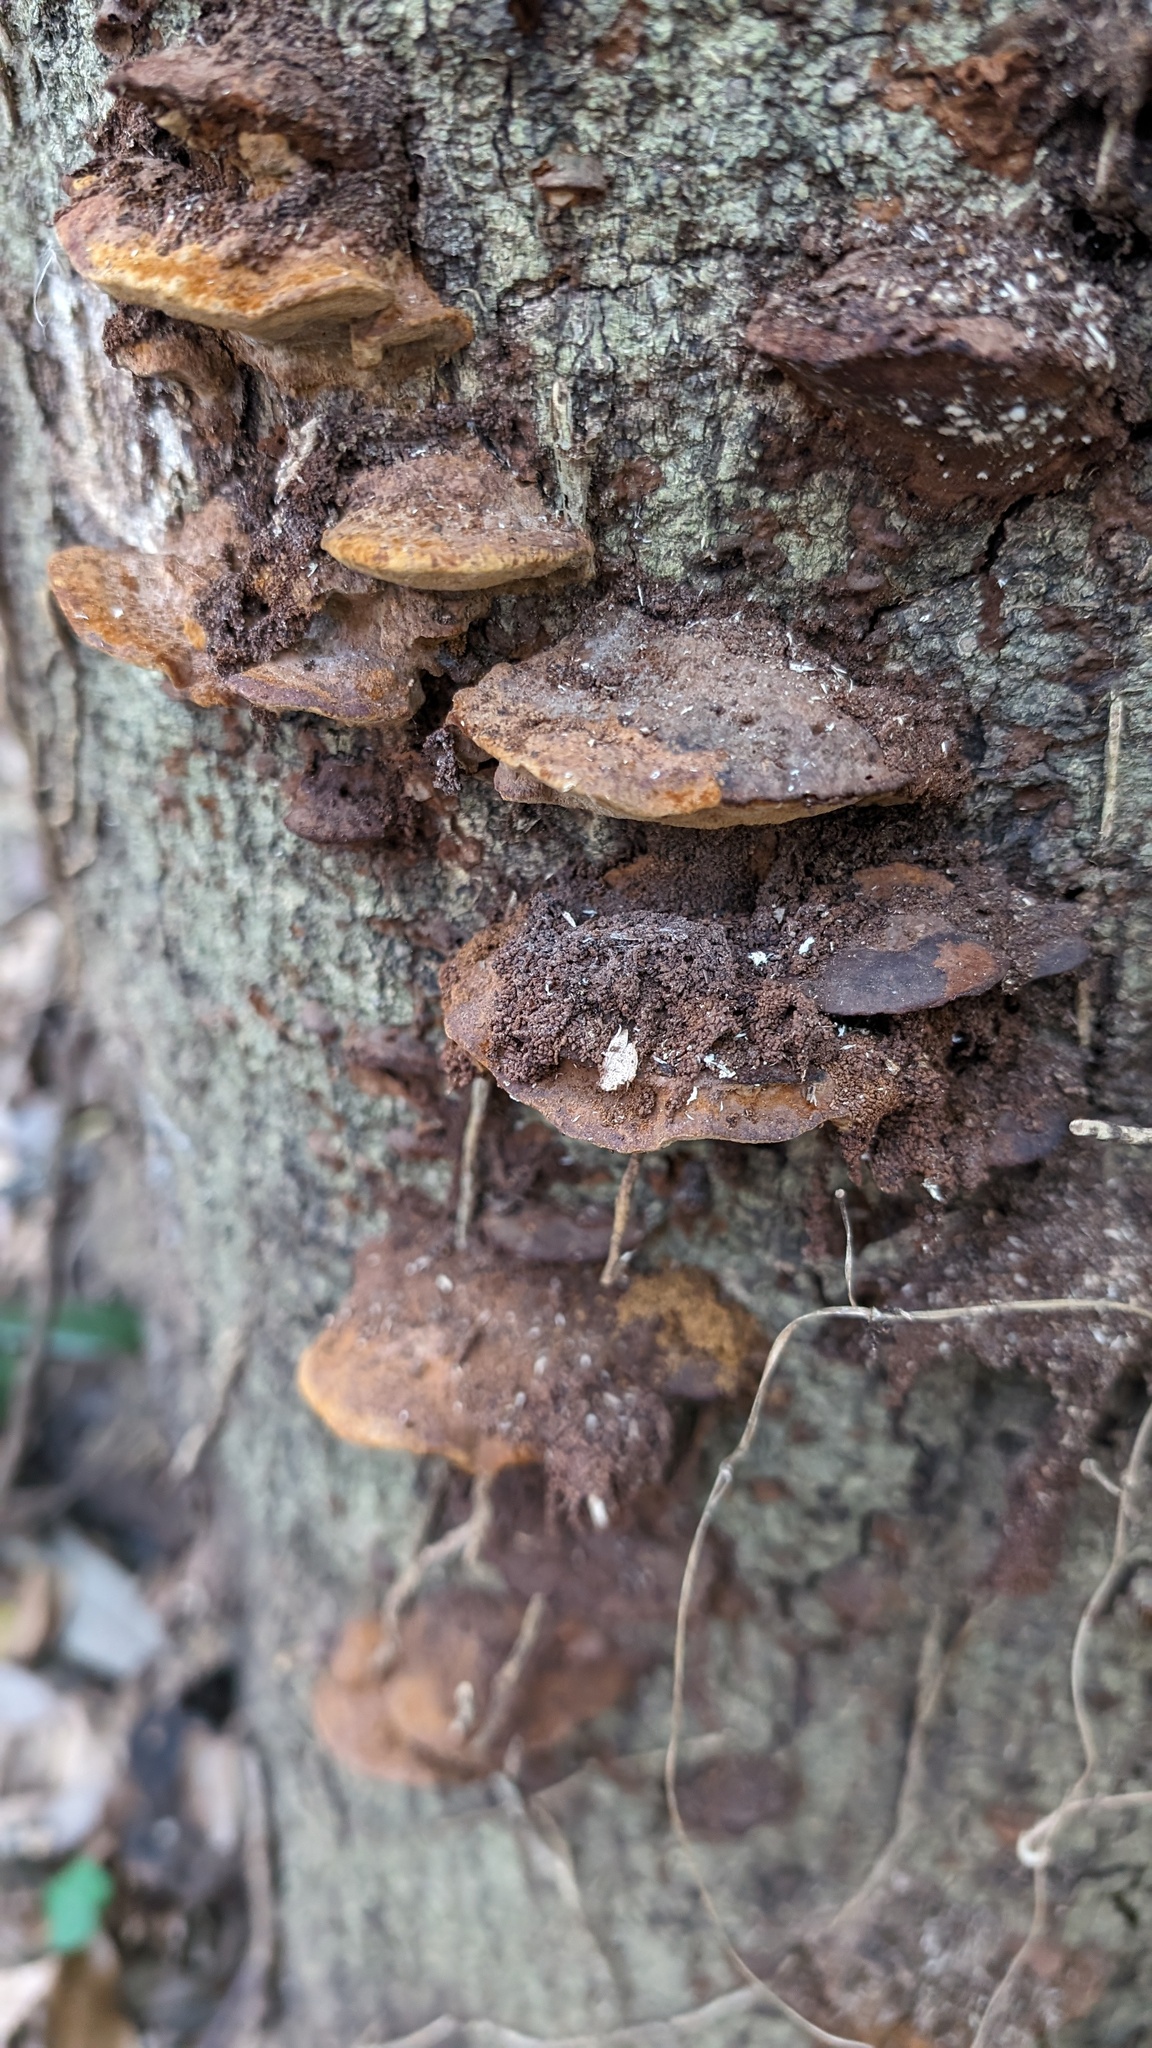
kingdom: Fungi
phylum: Basidiomycota
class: Agaricomycetes
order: Hymenochaetales
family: Hymenochaetaceae
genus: Phellinus
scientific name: Phellinus gilvus
